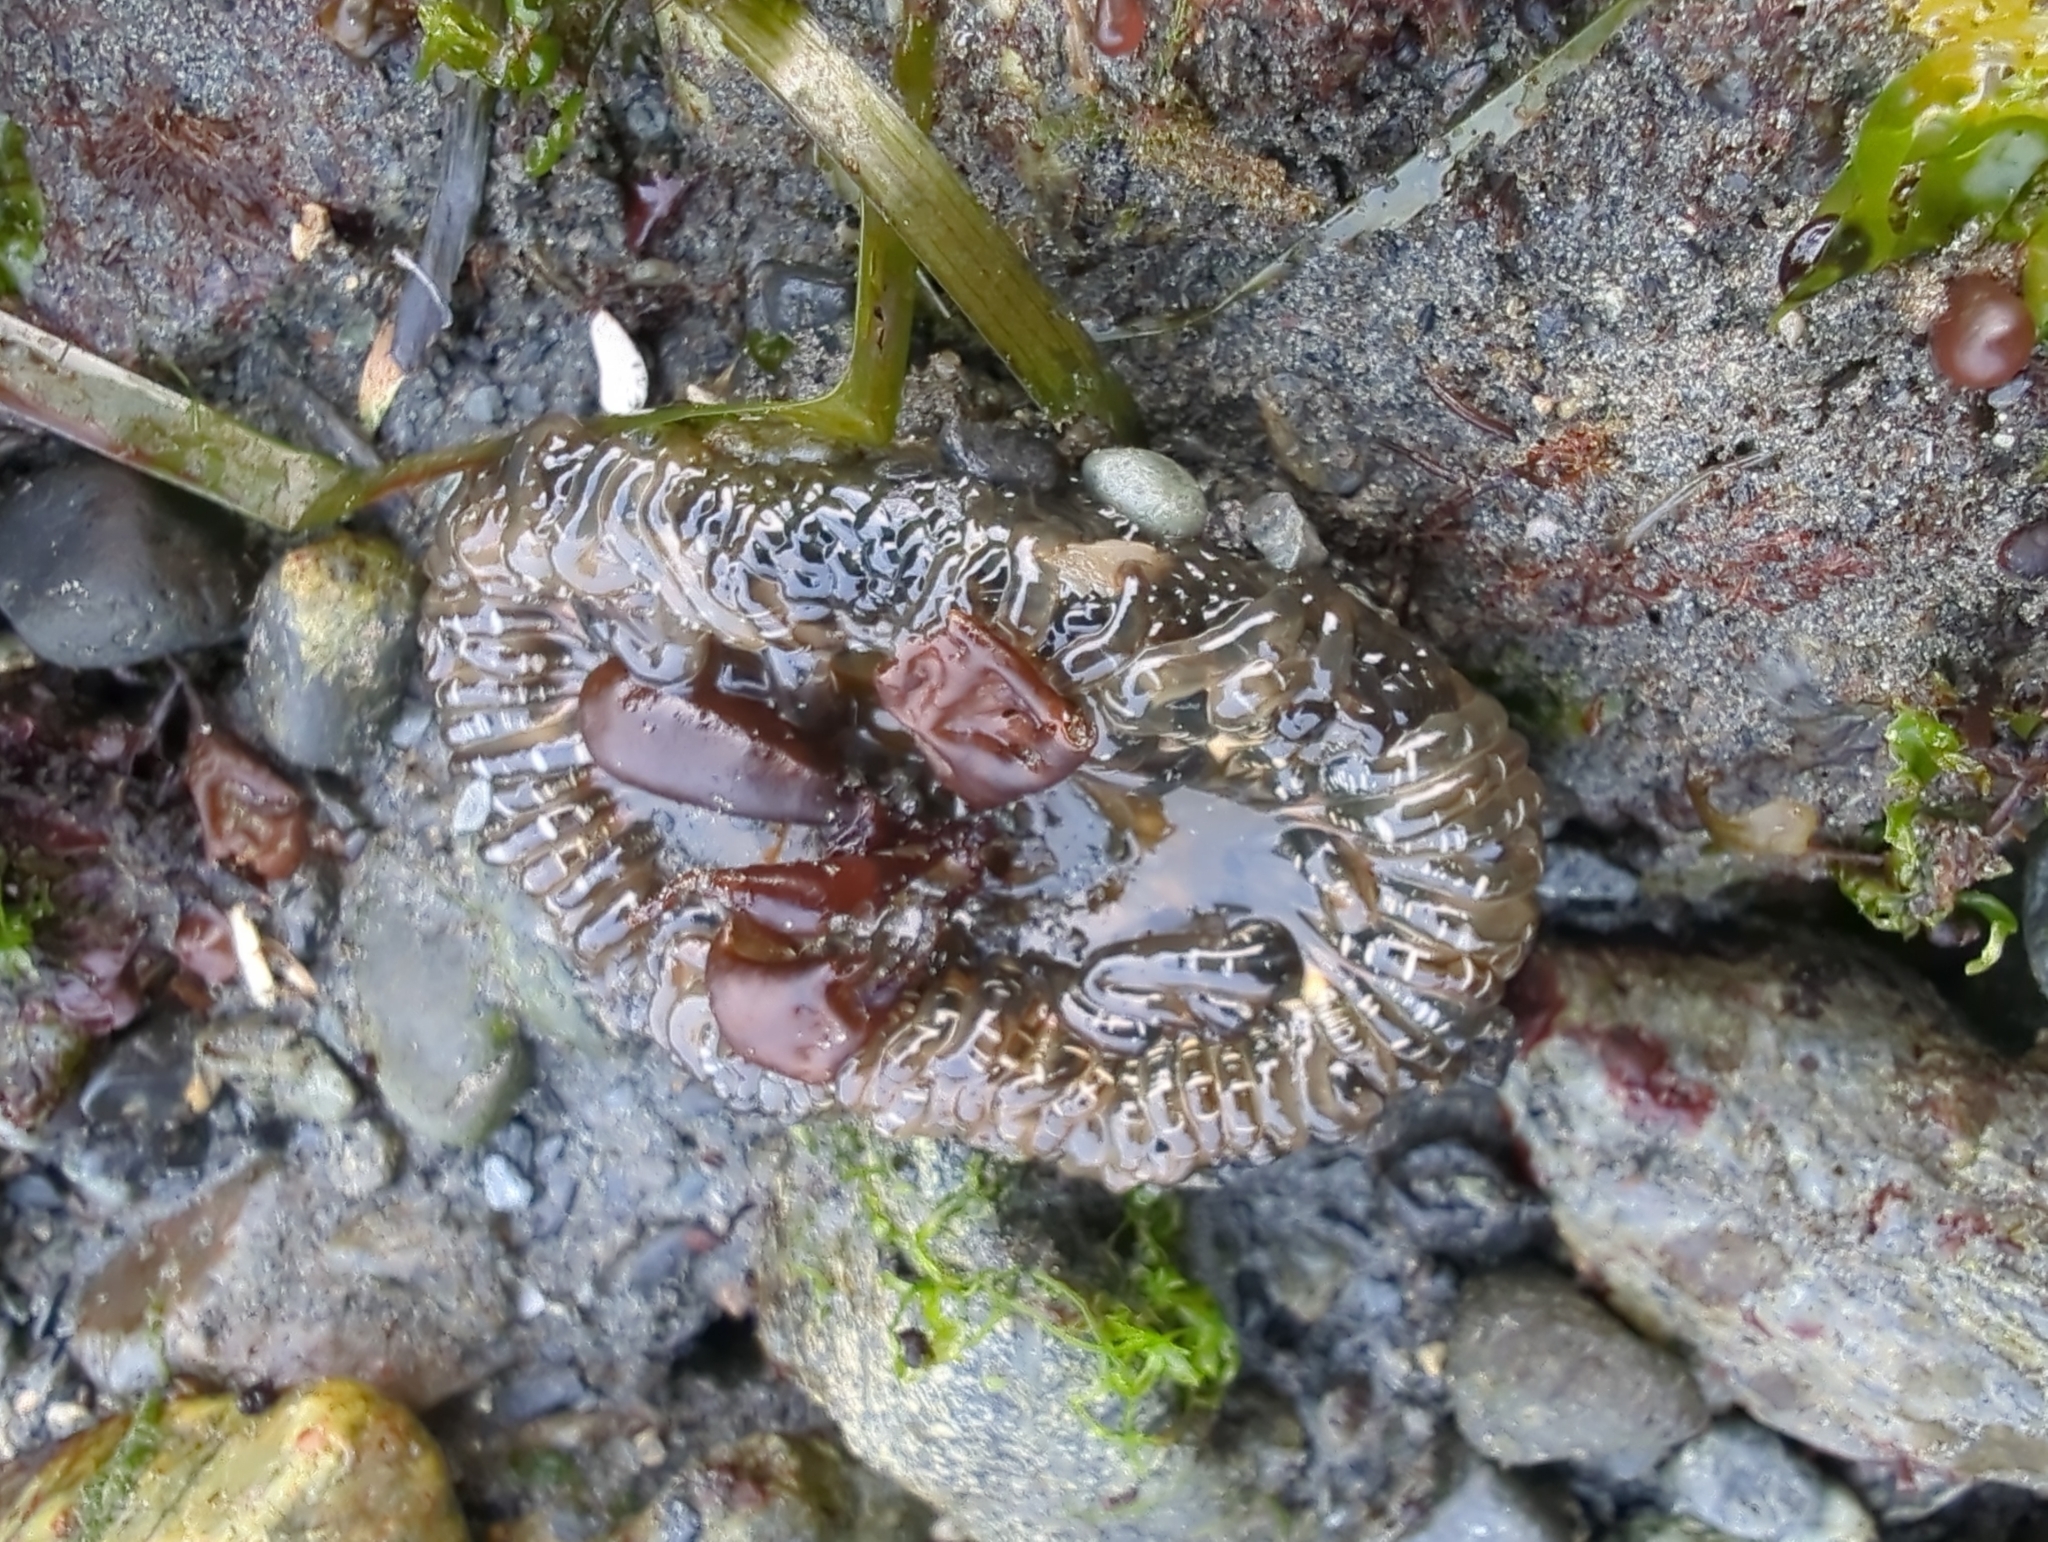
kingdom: Animalia
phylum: Cnidaria
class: Anthozoa
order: Actiniaria
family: Actiniidae
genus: Anthopleura
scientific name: Anthopleura artemisia
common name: Buried sea anemone
